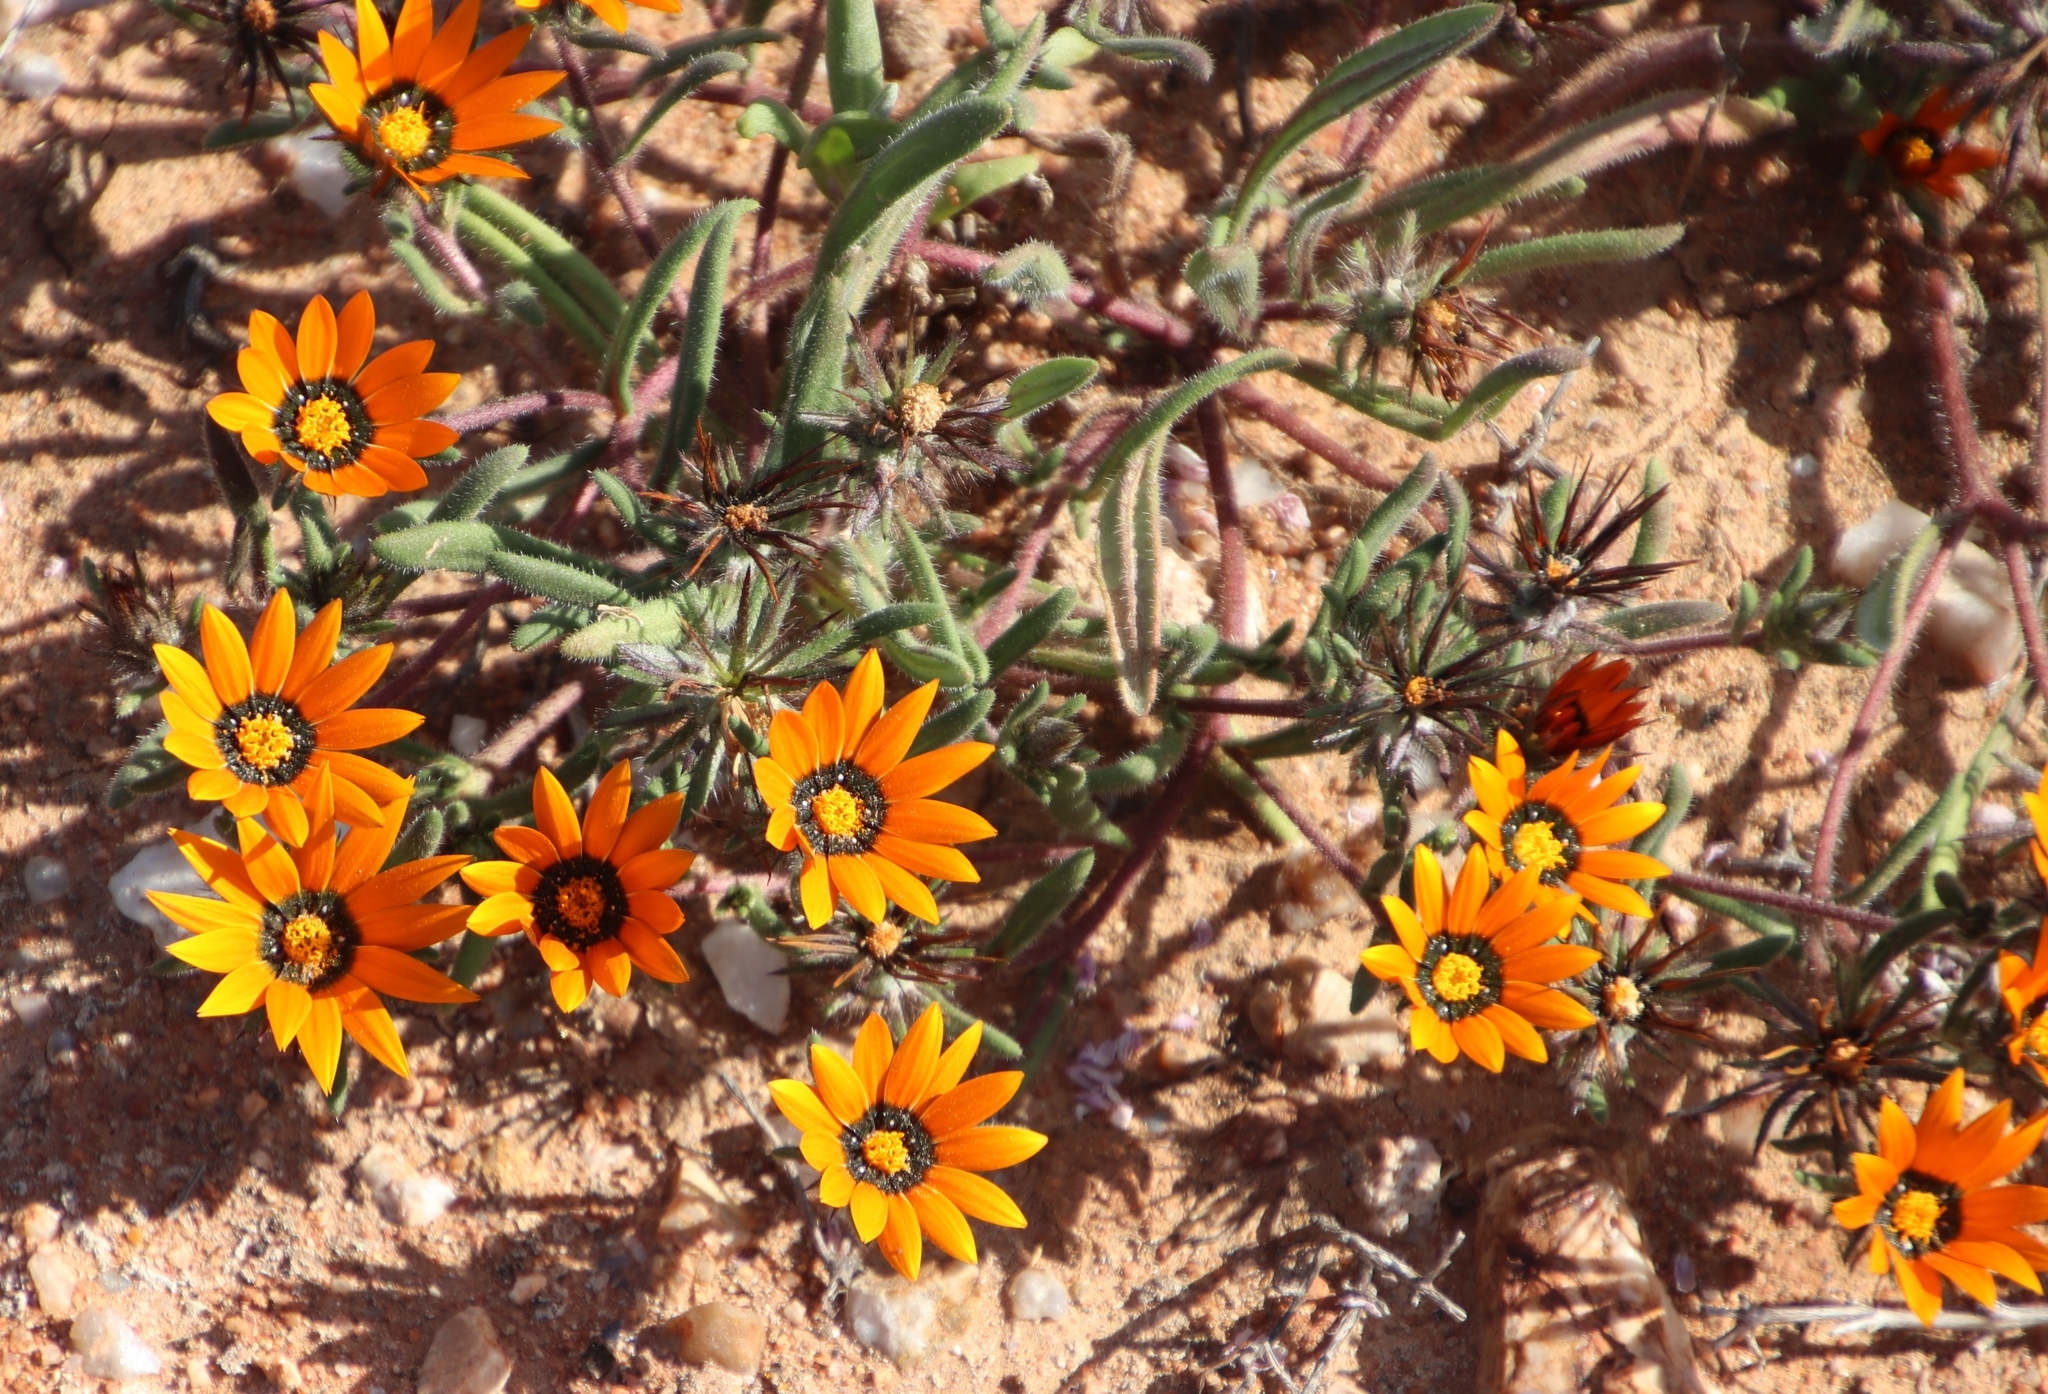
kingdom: Plantae
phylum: Tracheophyta
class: Magnoliopsida
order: Asterales
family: Asteraceae
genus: Gorteria
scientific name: Gorteria diffusa
